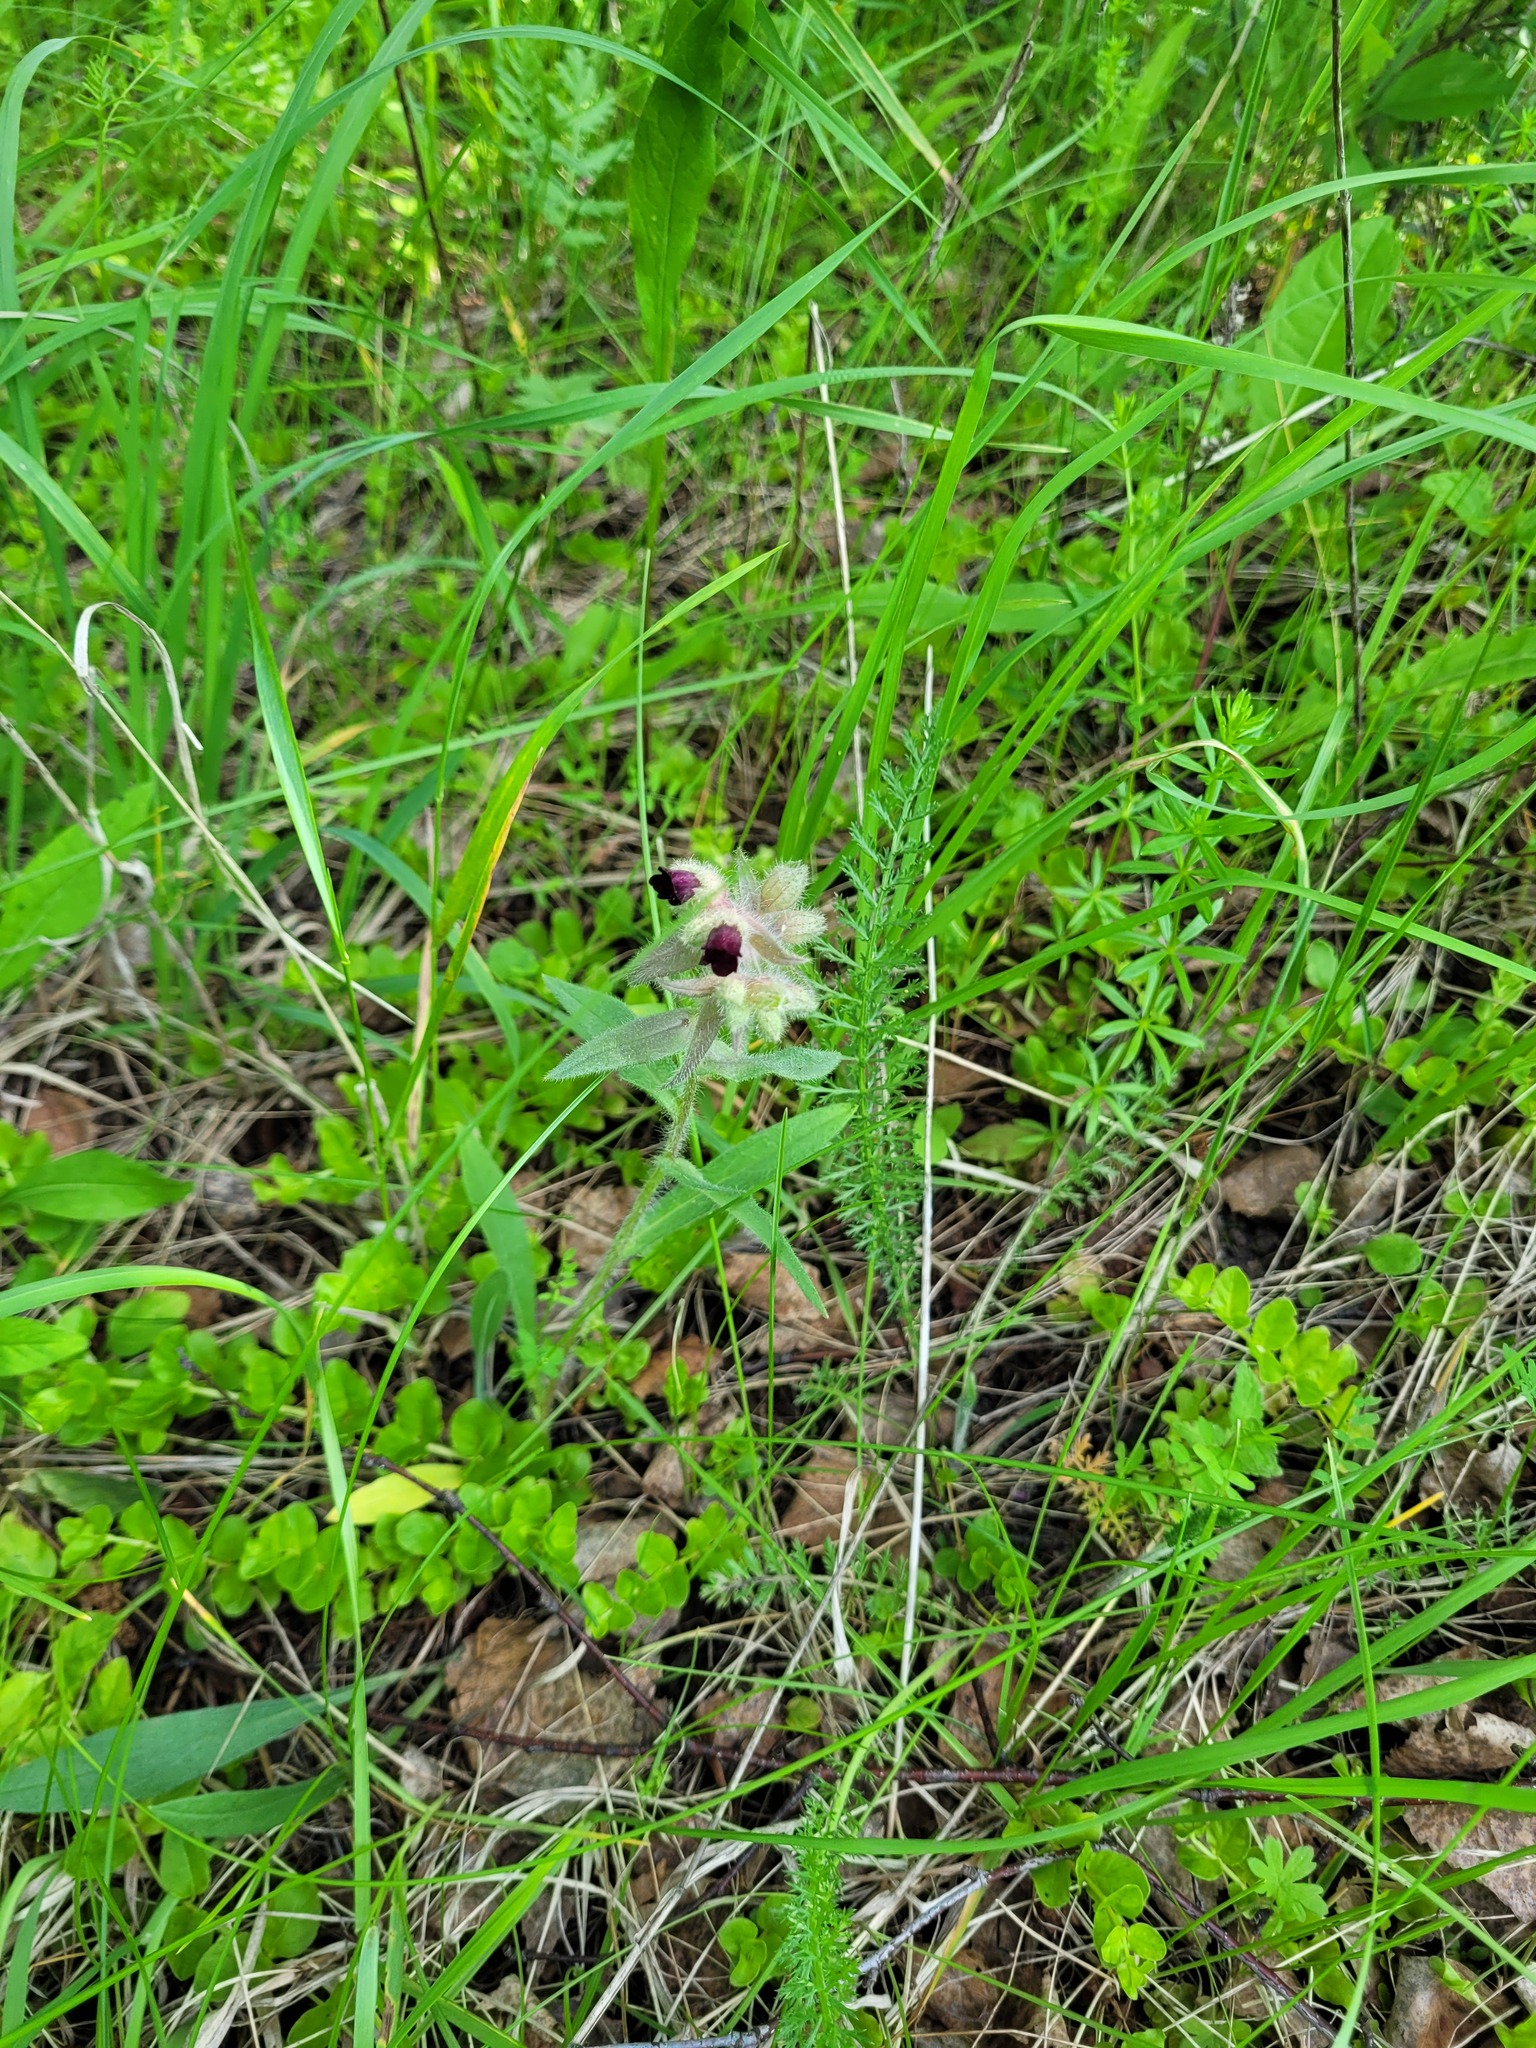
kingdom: Plantae
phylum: Tracheophyta
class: Magnoliopsida
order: Boraginales
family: Boraginaceae
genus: Nonea
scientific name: Nonea pulla
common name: Brown nonea
